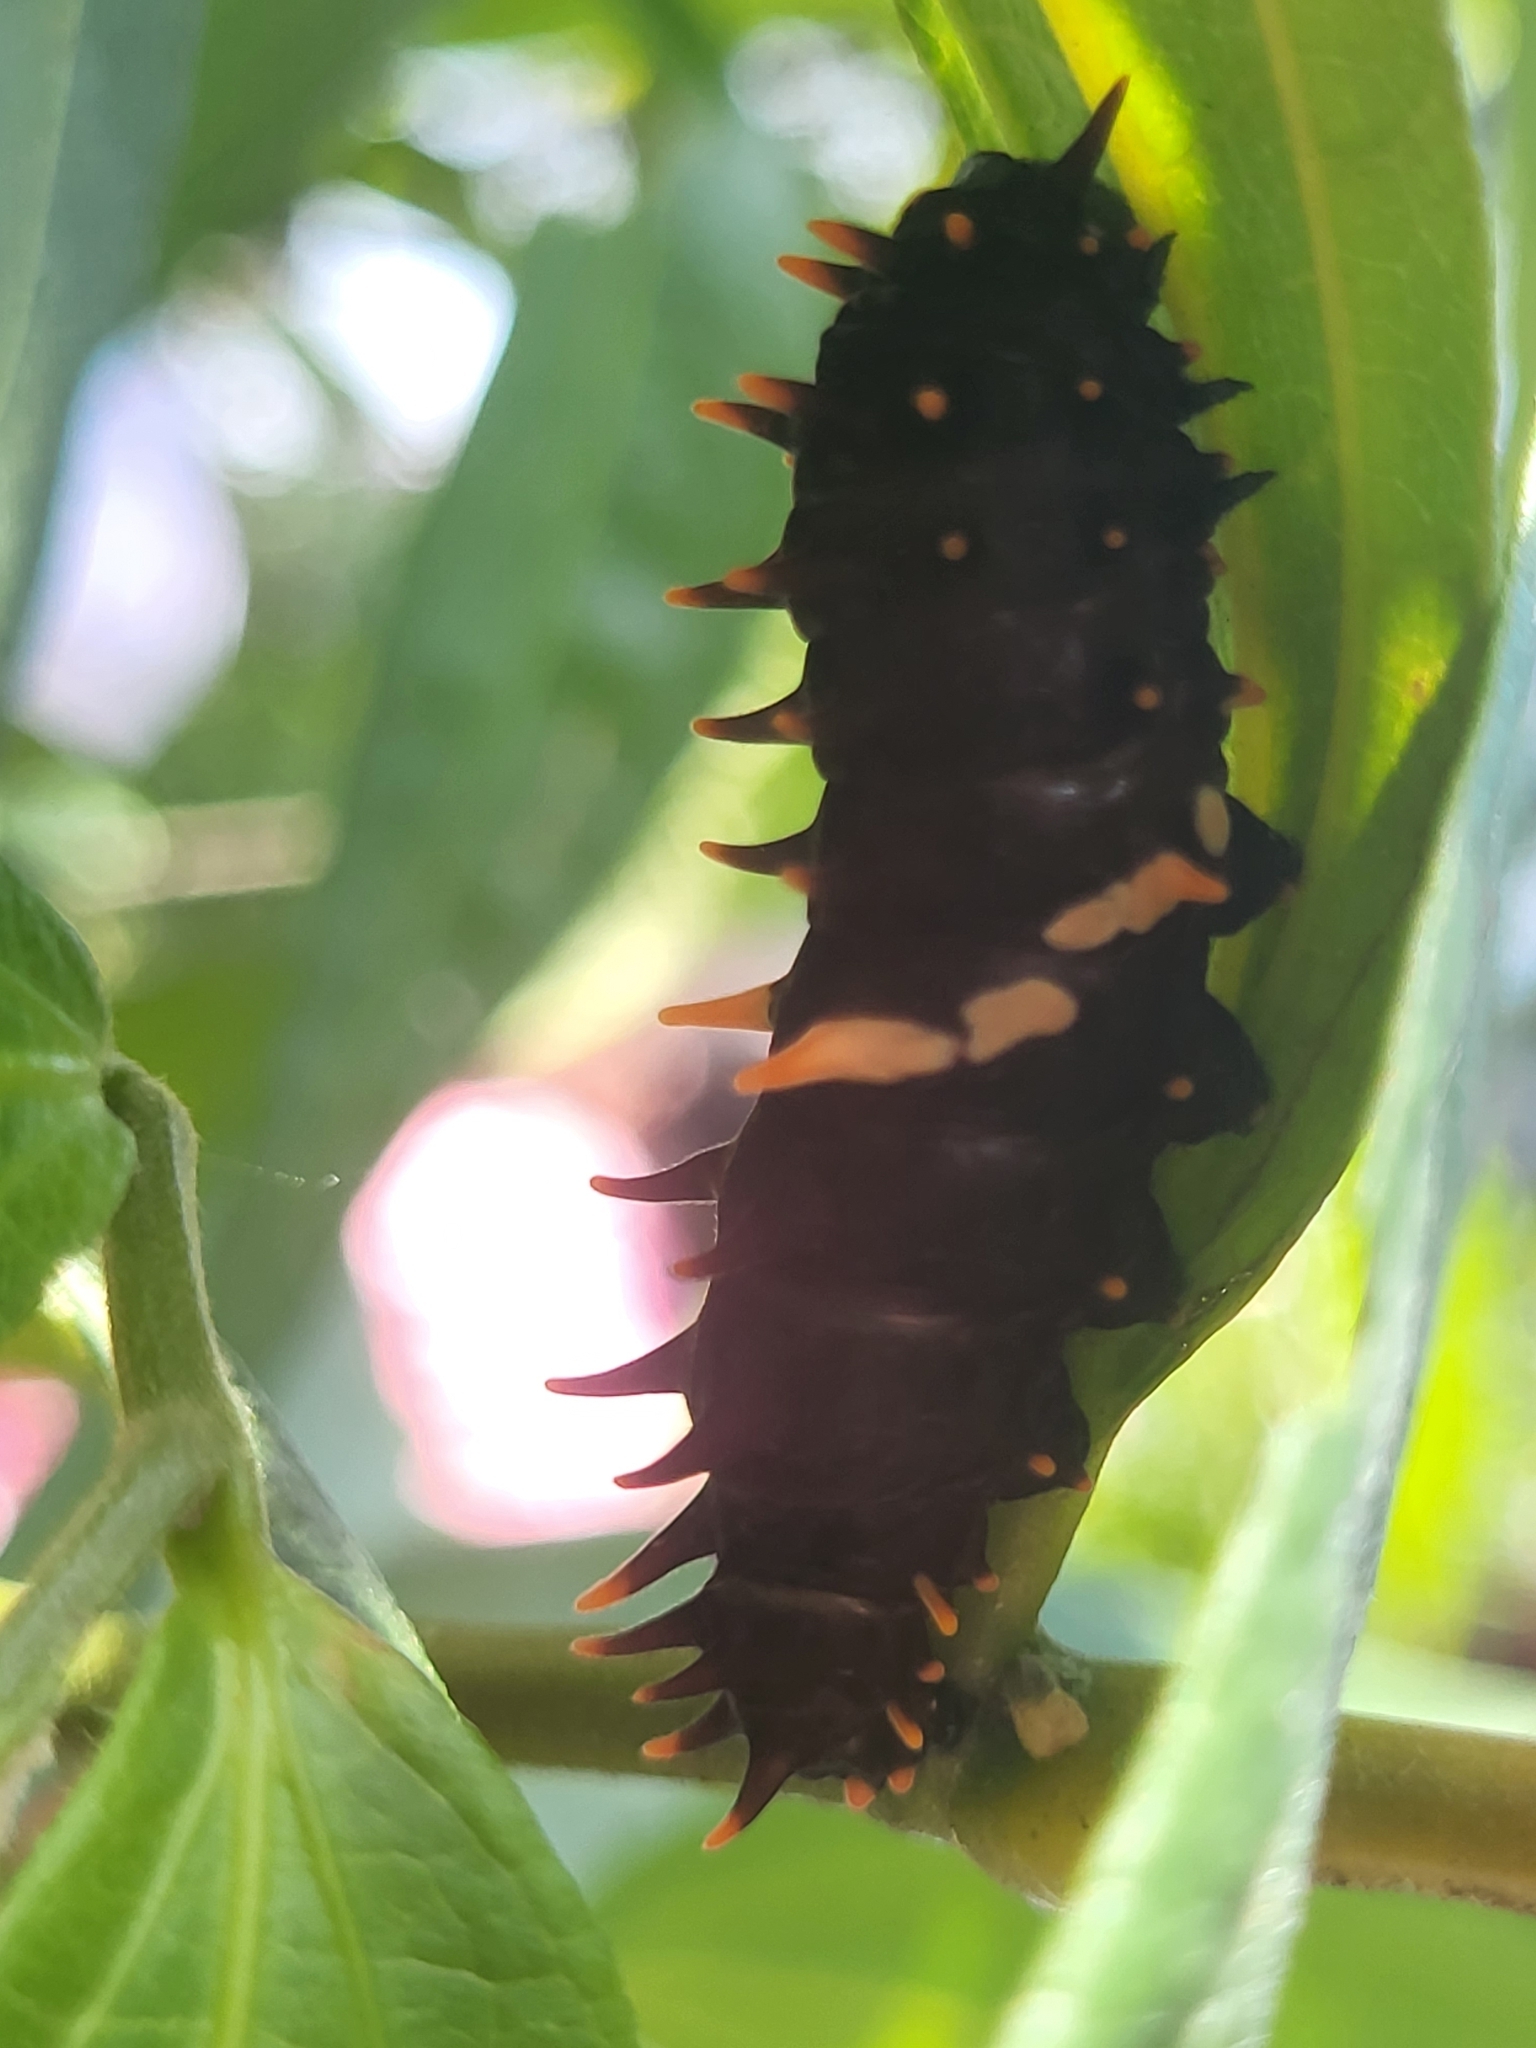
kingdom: Animalia
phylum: Arthropoda
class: Insecta
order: Lepidoptera
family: Papilionidae
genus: Troides
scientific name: Troides minos
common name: Malabar birdwing
